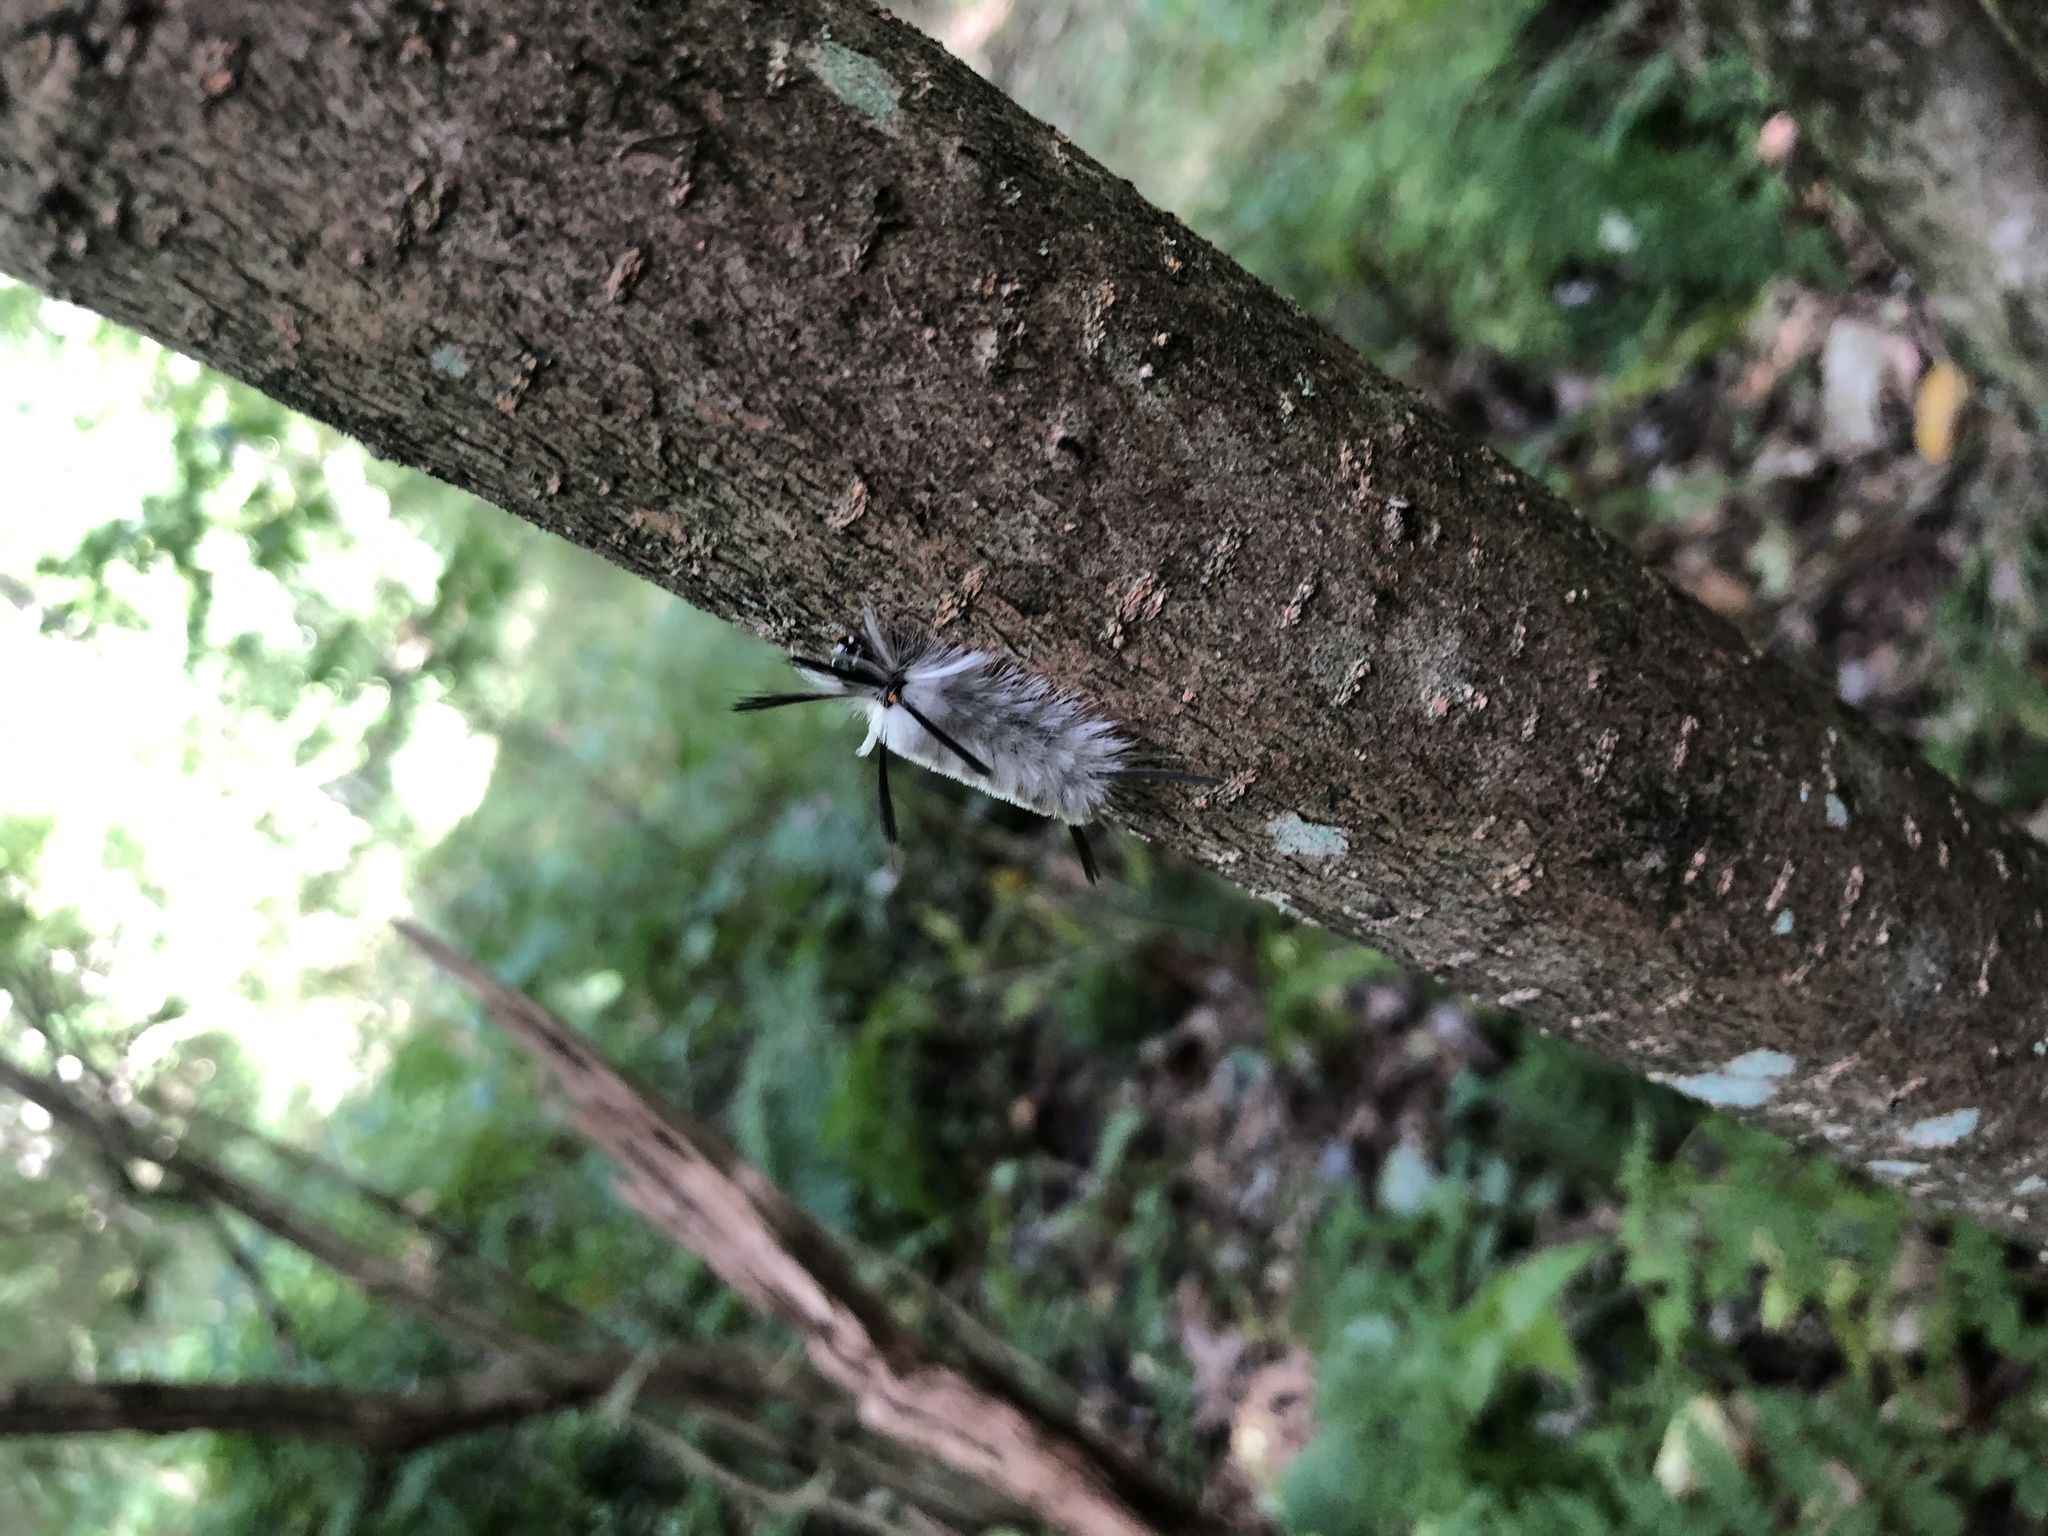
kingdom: Animalia
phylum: Arthropoda
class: Insecta
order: Lepidoptera
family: Erebidae
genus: Halysidota
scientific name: Halysidota tessellaris
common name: Banded tussock moth
